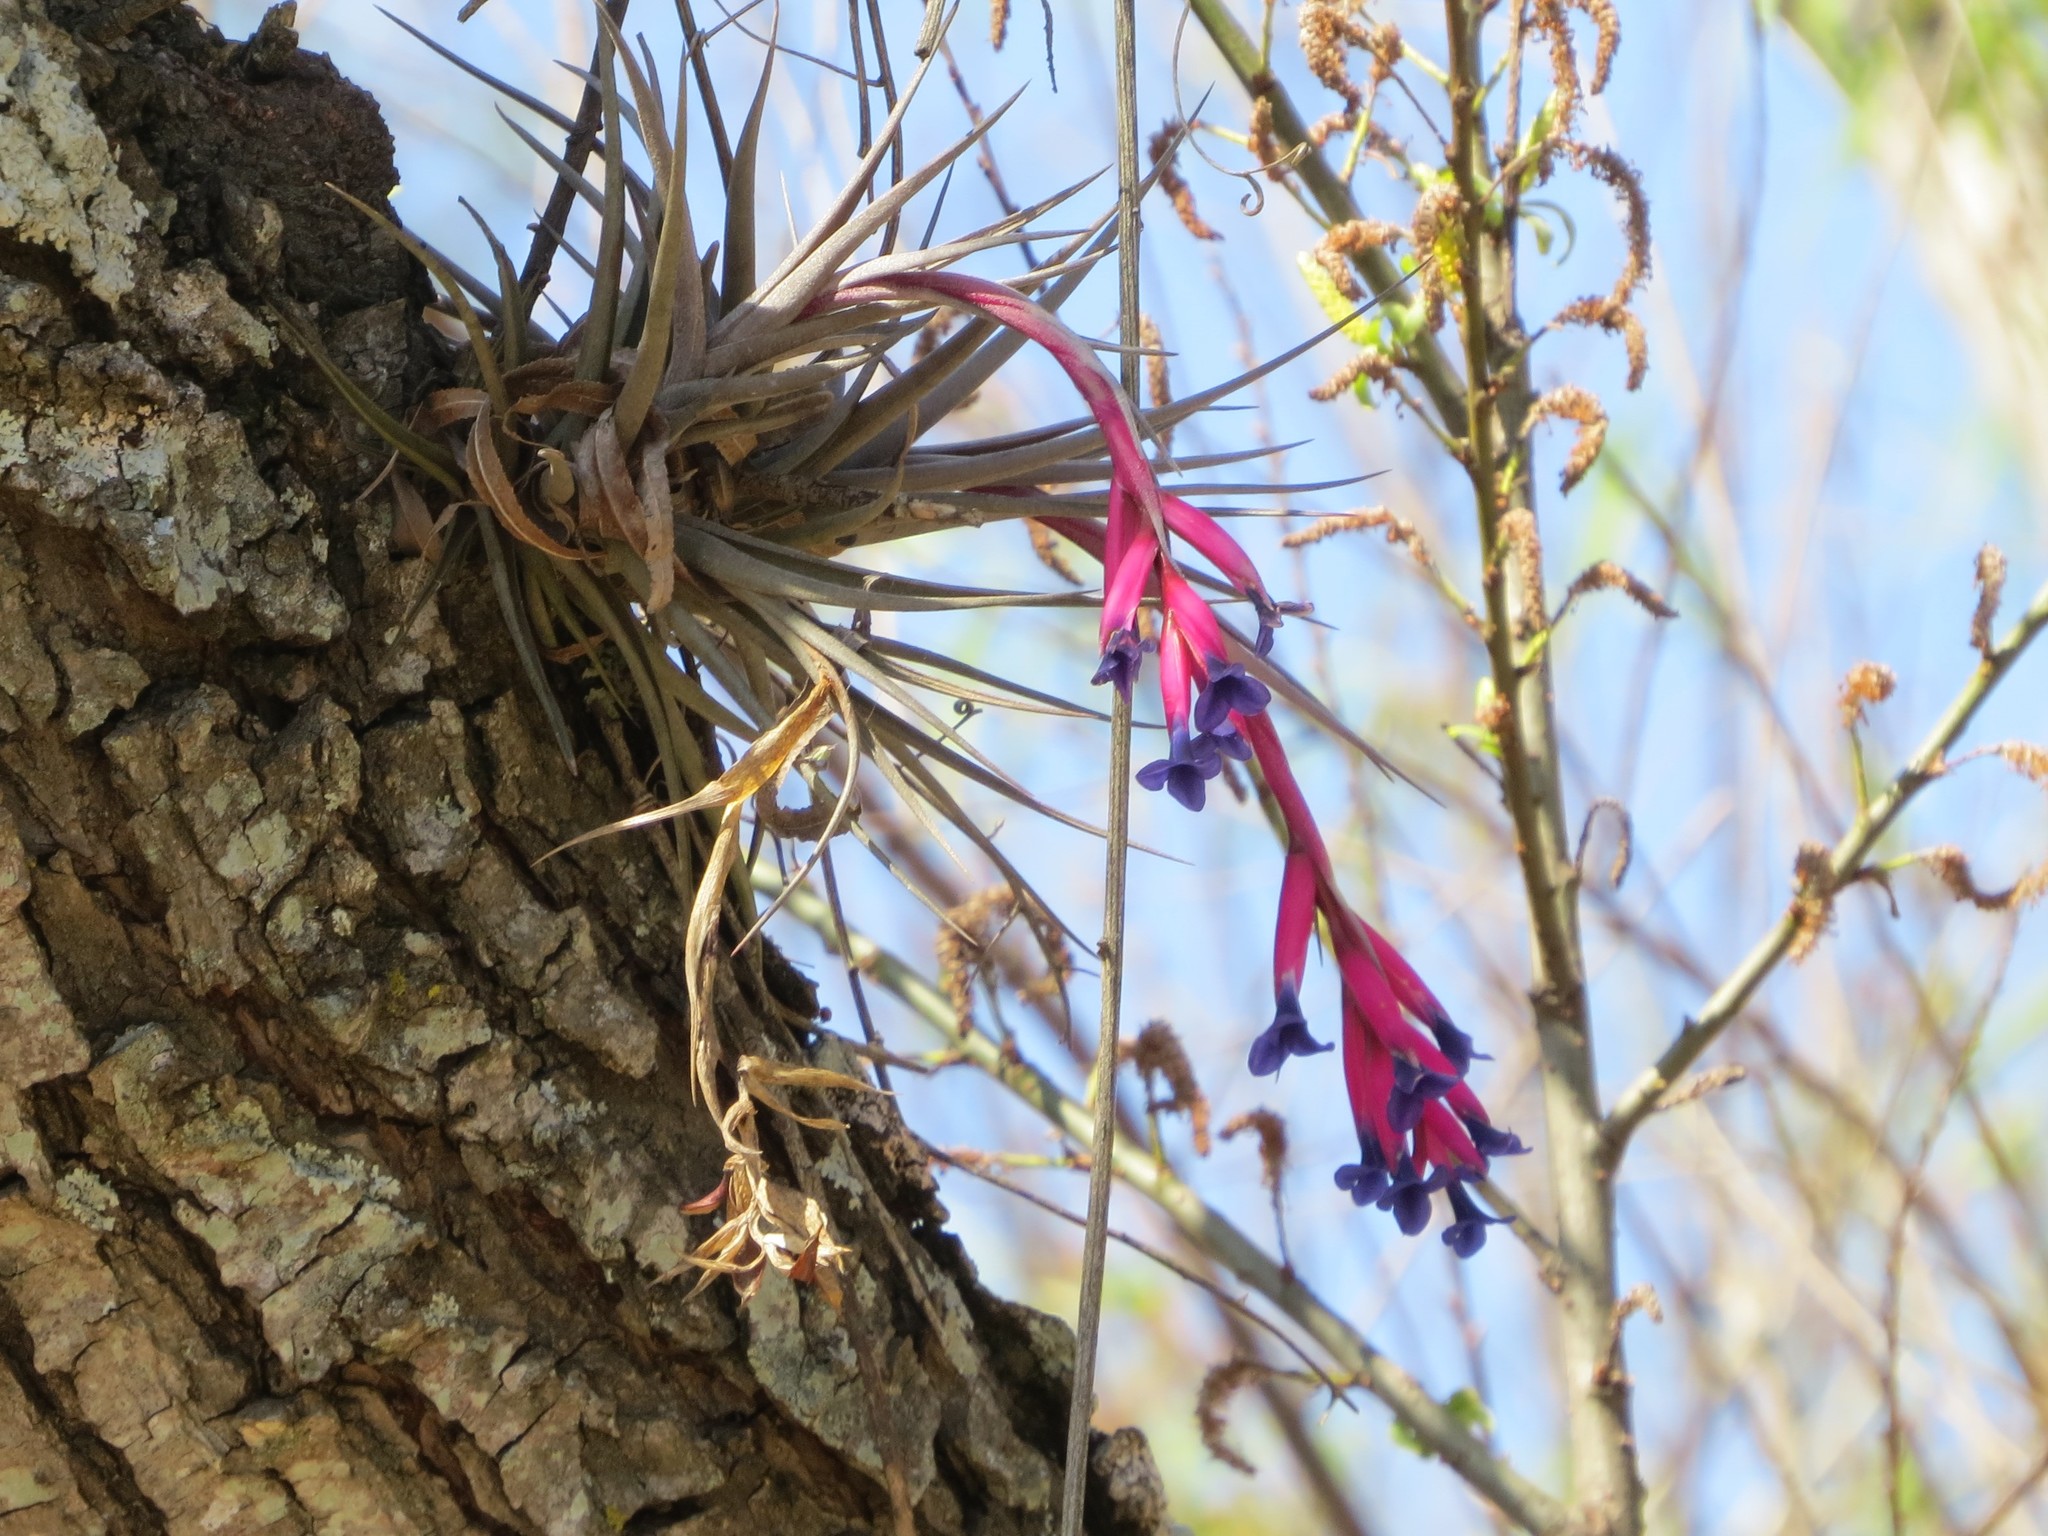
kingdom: Plantae
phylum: Tracheophyta
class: Liliopsida
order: Poales
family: Bromeliaceae
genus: Tillandsia
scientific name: Tillandsia aeranthos
